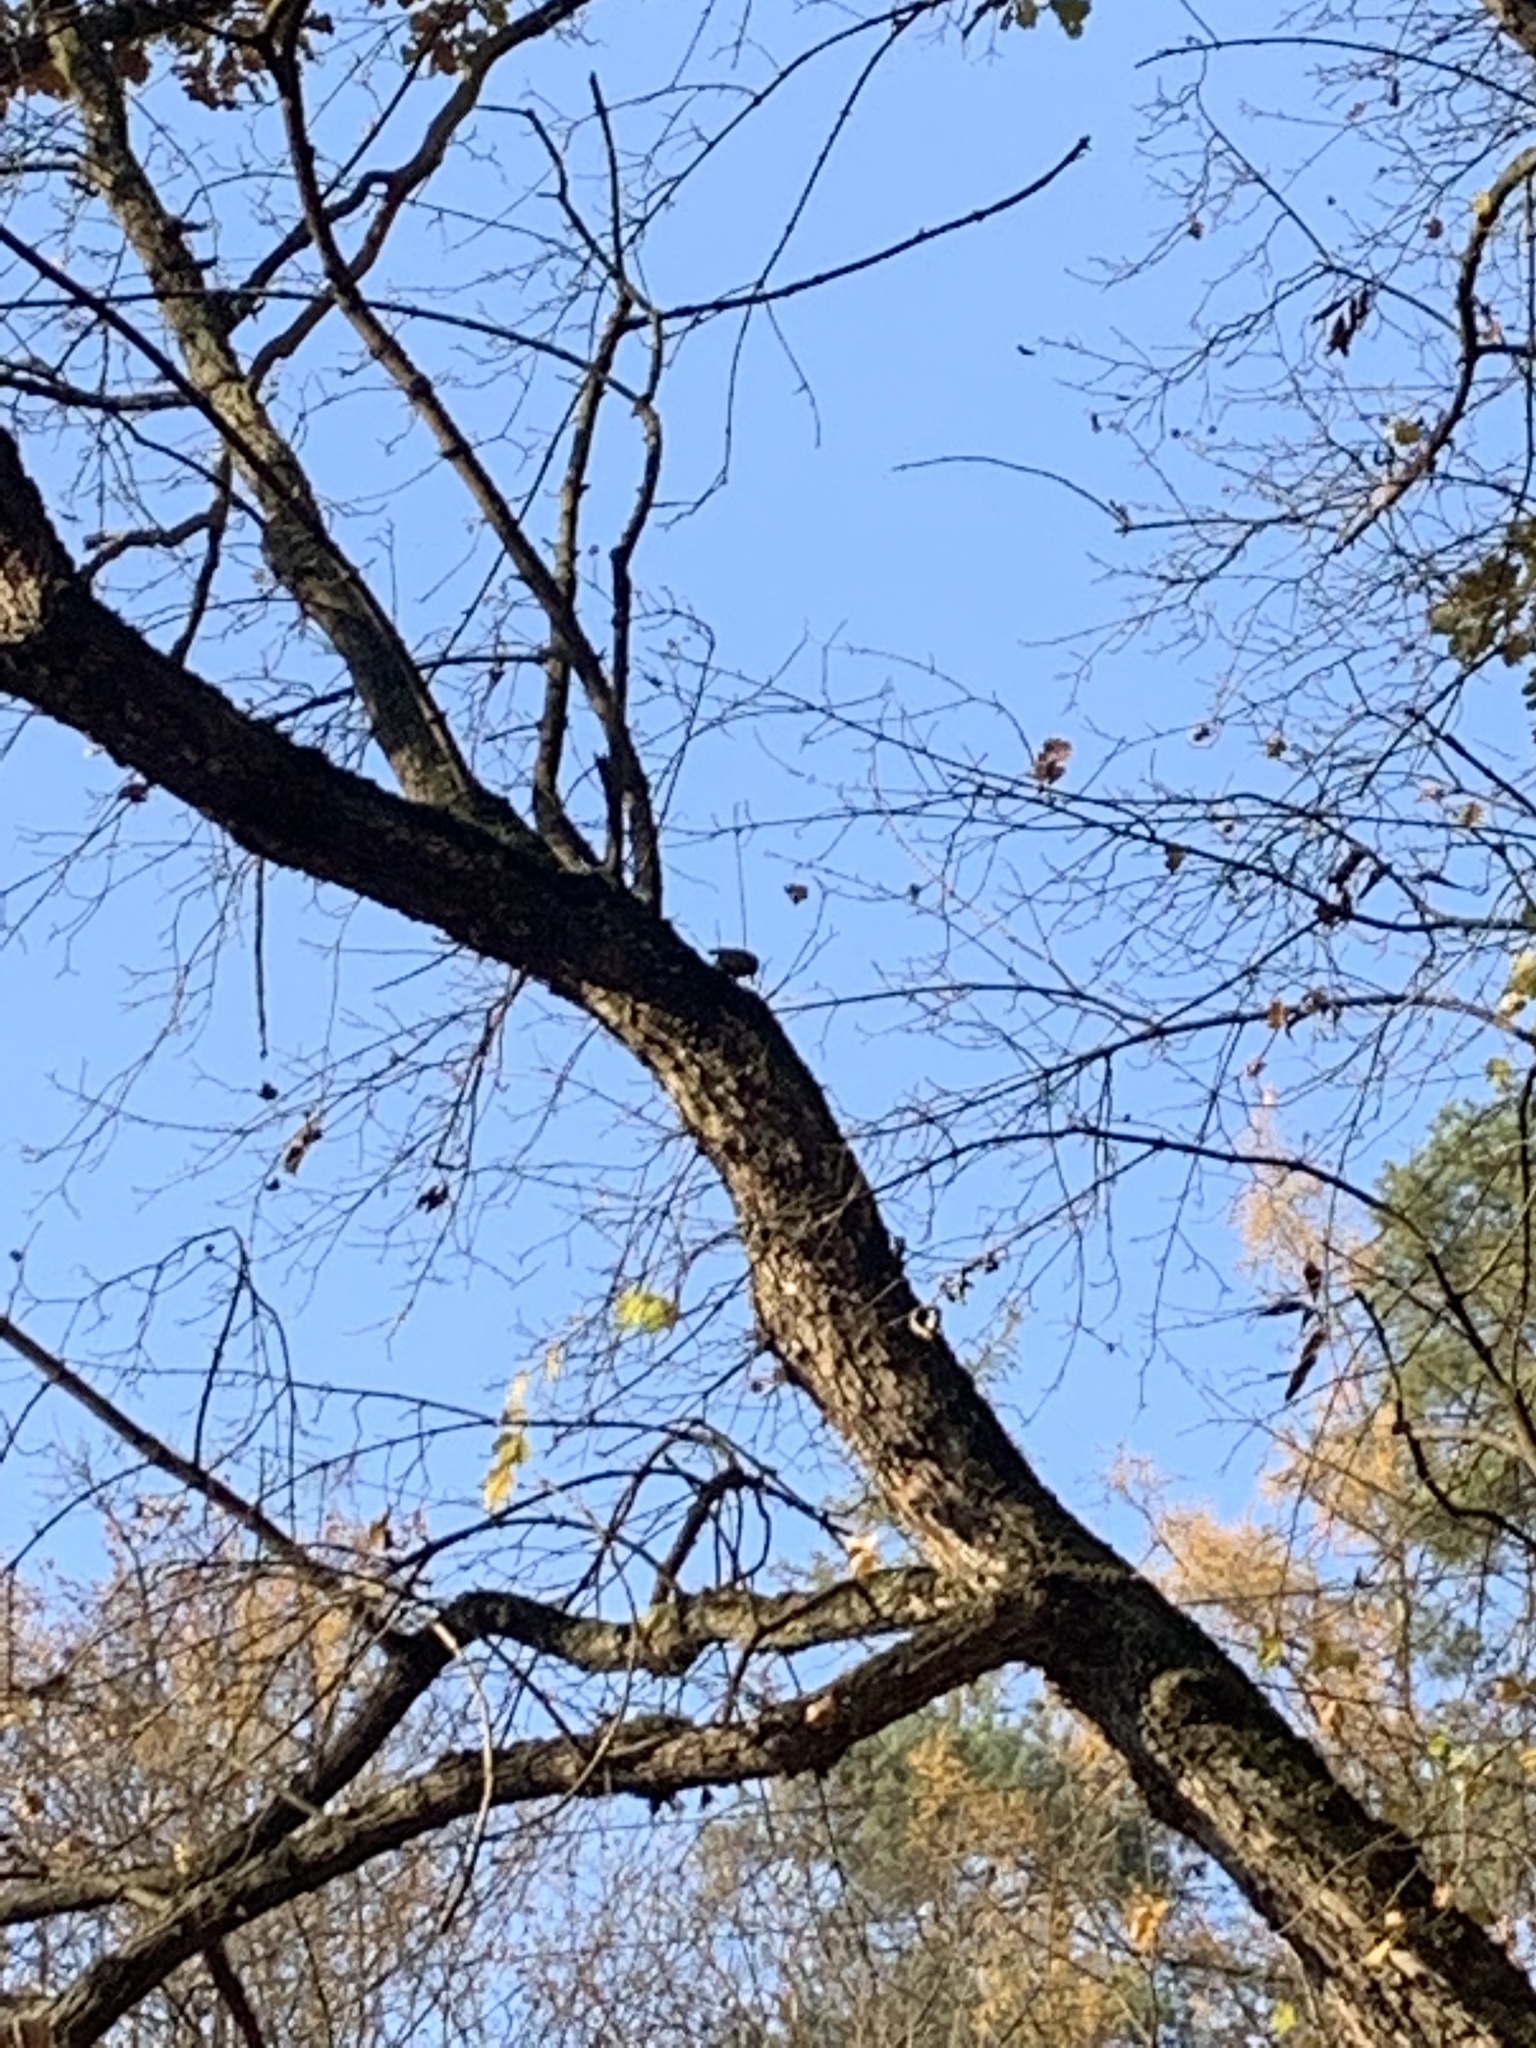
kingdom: Animalia
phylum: Chordata
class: Aves
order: Passeriformes
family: Sittidae
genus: Sitta
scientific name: Sitta europaea
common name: Eurasian nuthatch
